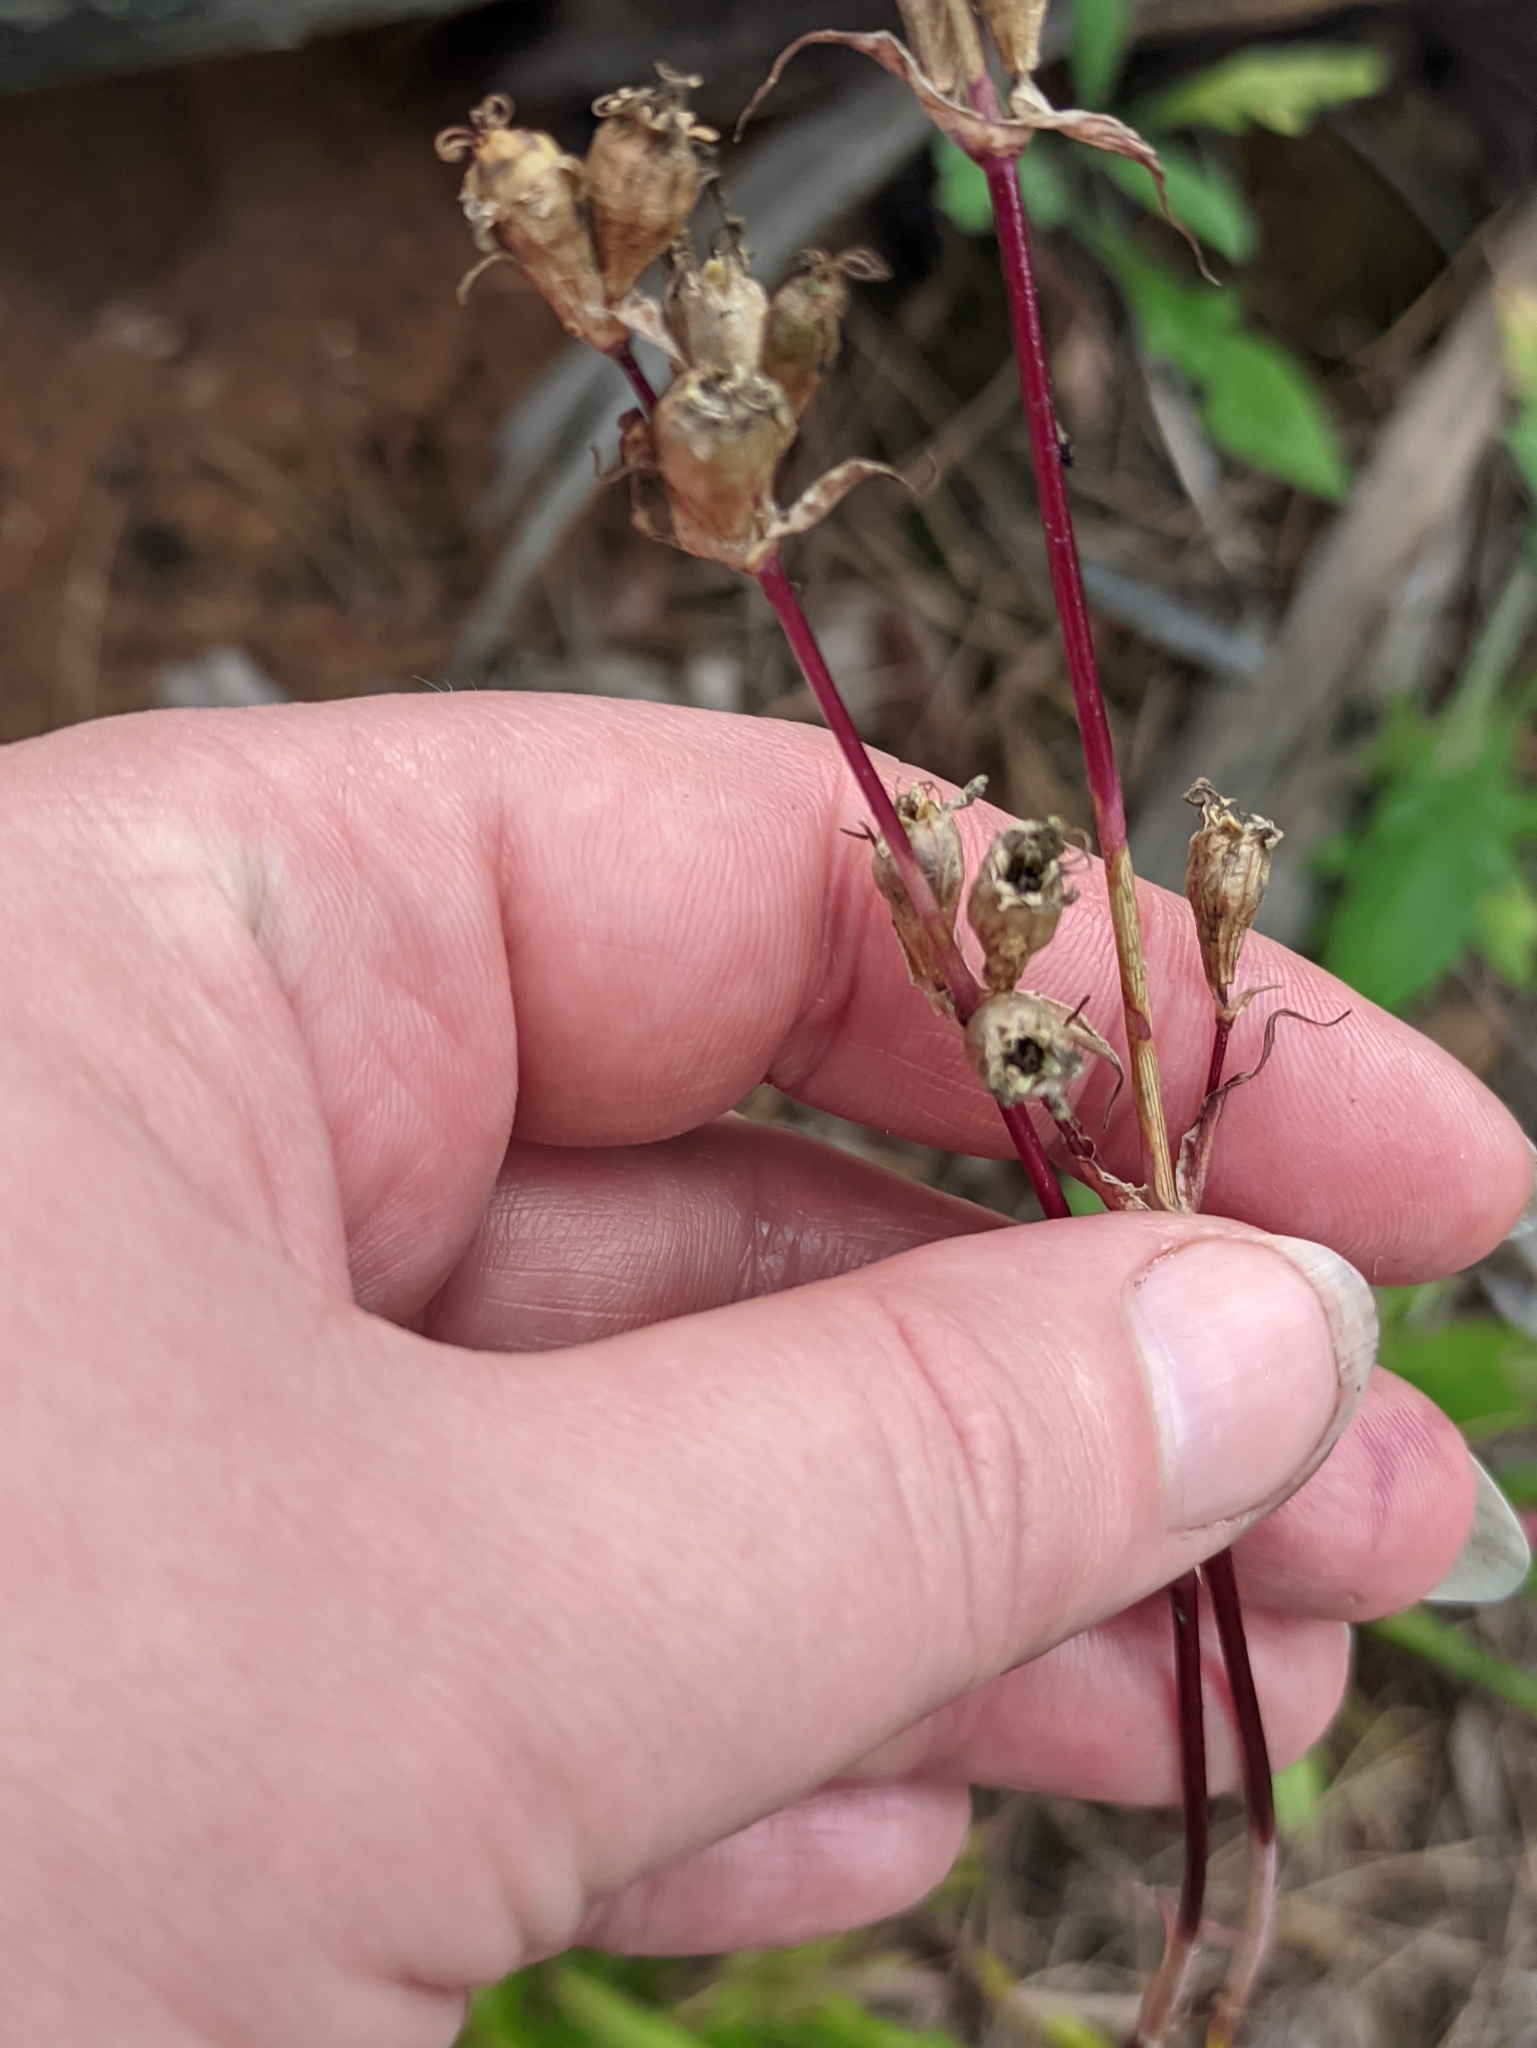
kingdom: Plantae
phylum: Tracheophyta
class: Magnoliopsida
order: Caryophyllales
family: Caryophyllaceae
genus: Viscaria
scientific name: Viscaria vulgaris
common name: Clammy campion
